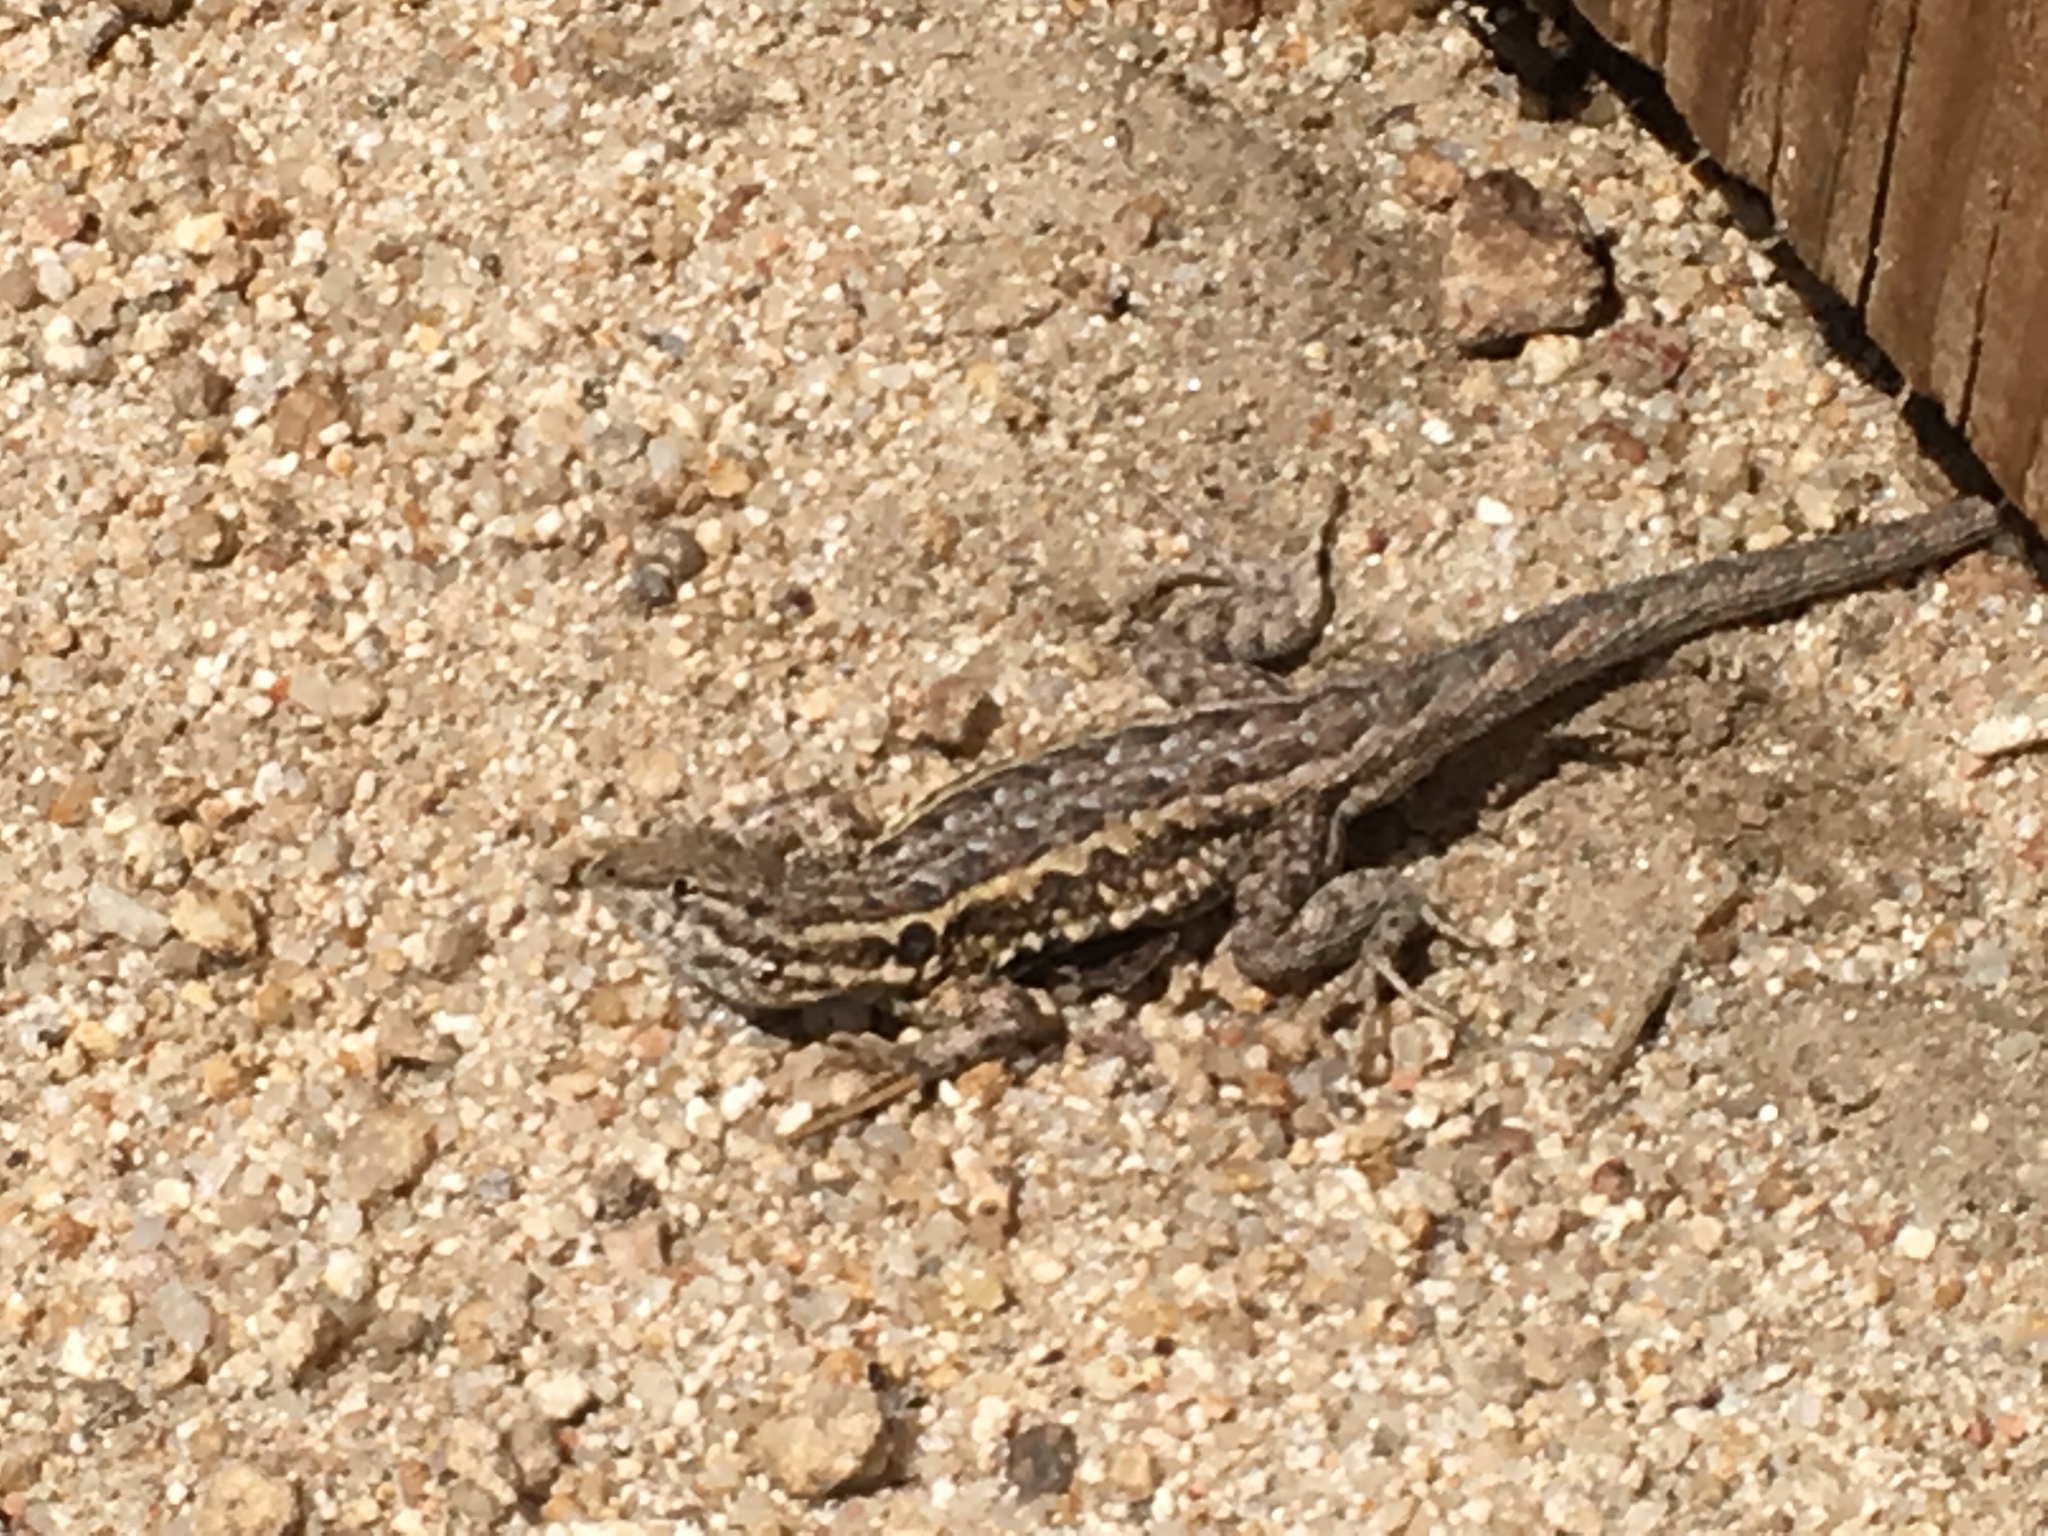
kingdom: Animalia
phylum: Chordata
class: Squamata
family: Phrynosomatidae
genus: Uta
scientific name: Uta stansburiana
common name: Side-blotched lizard
